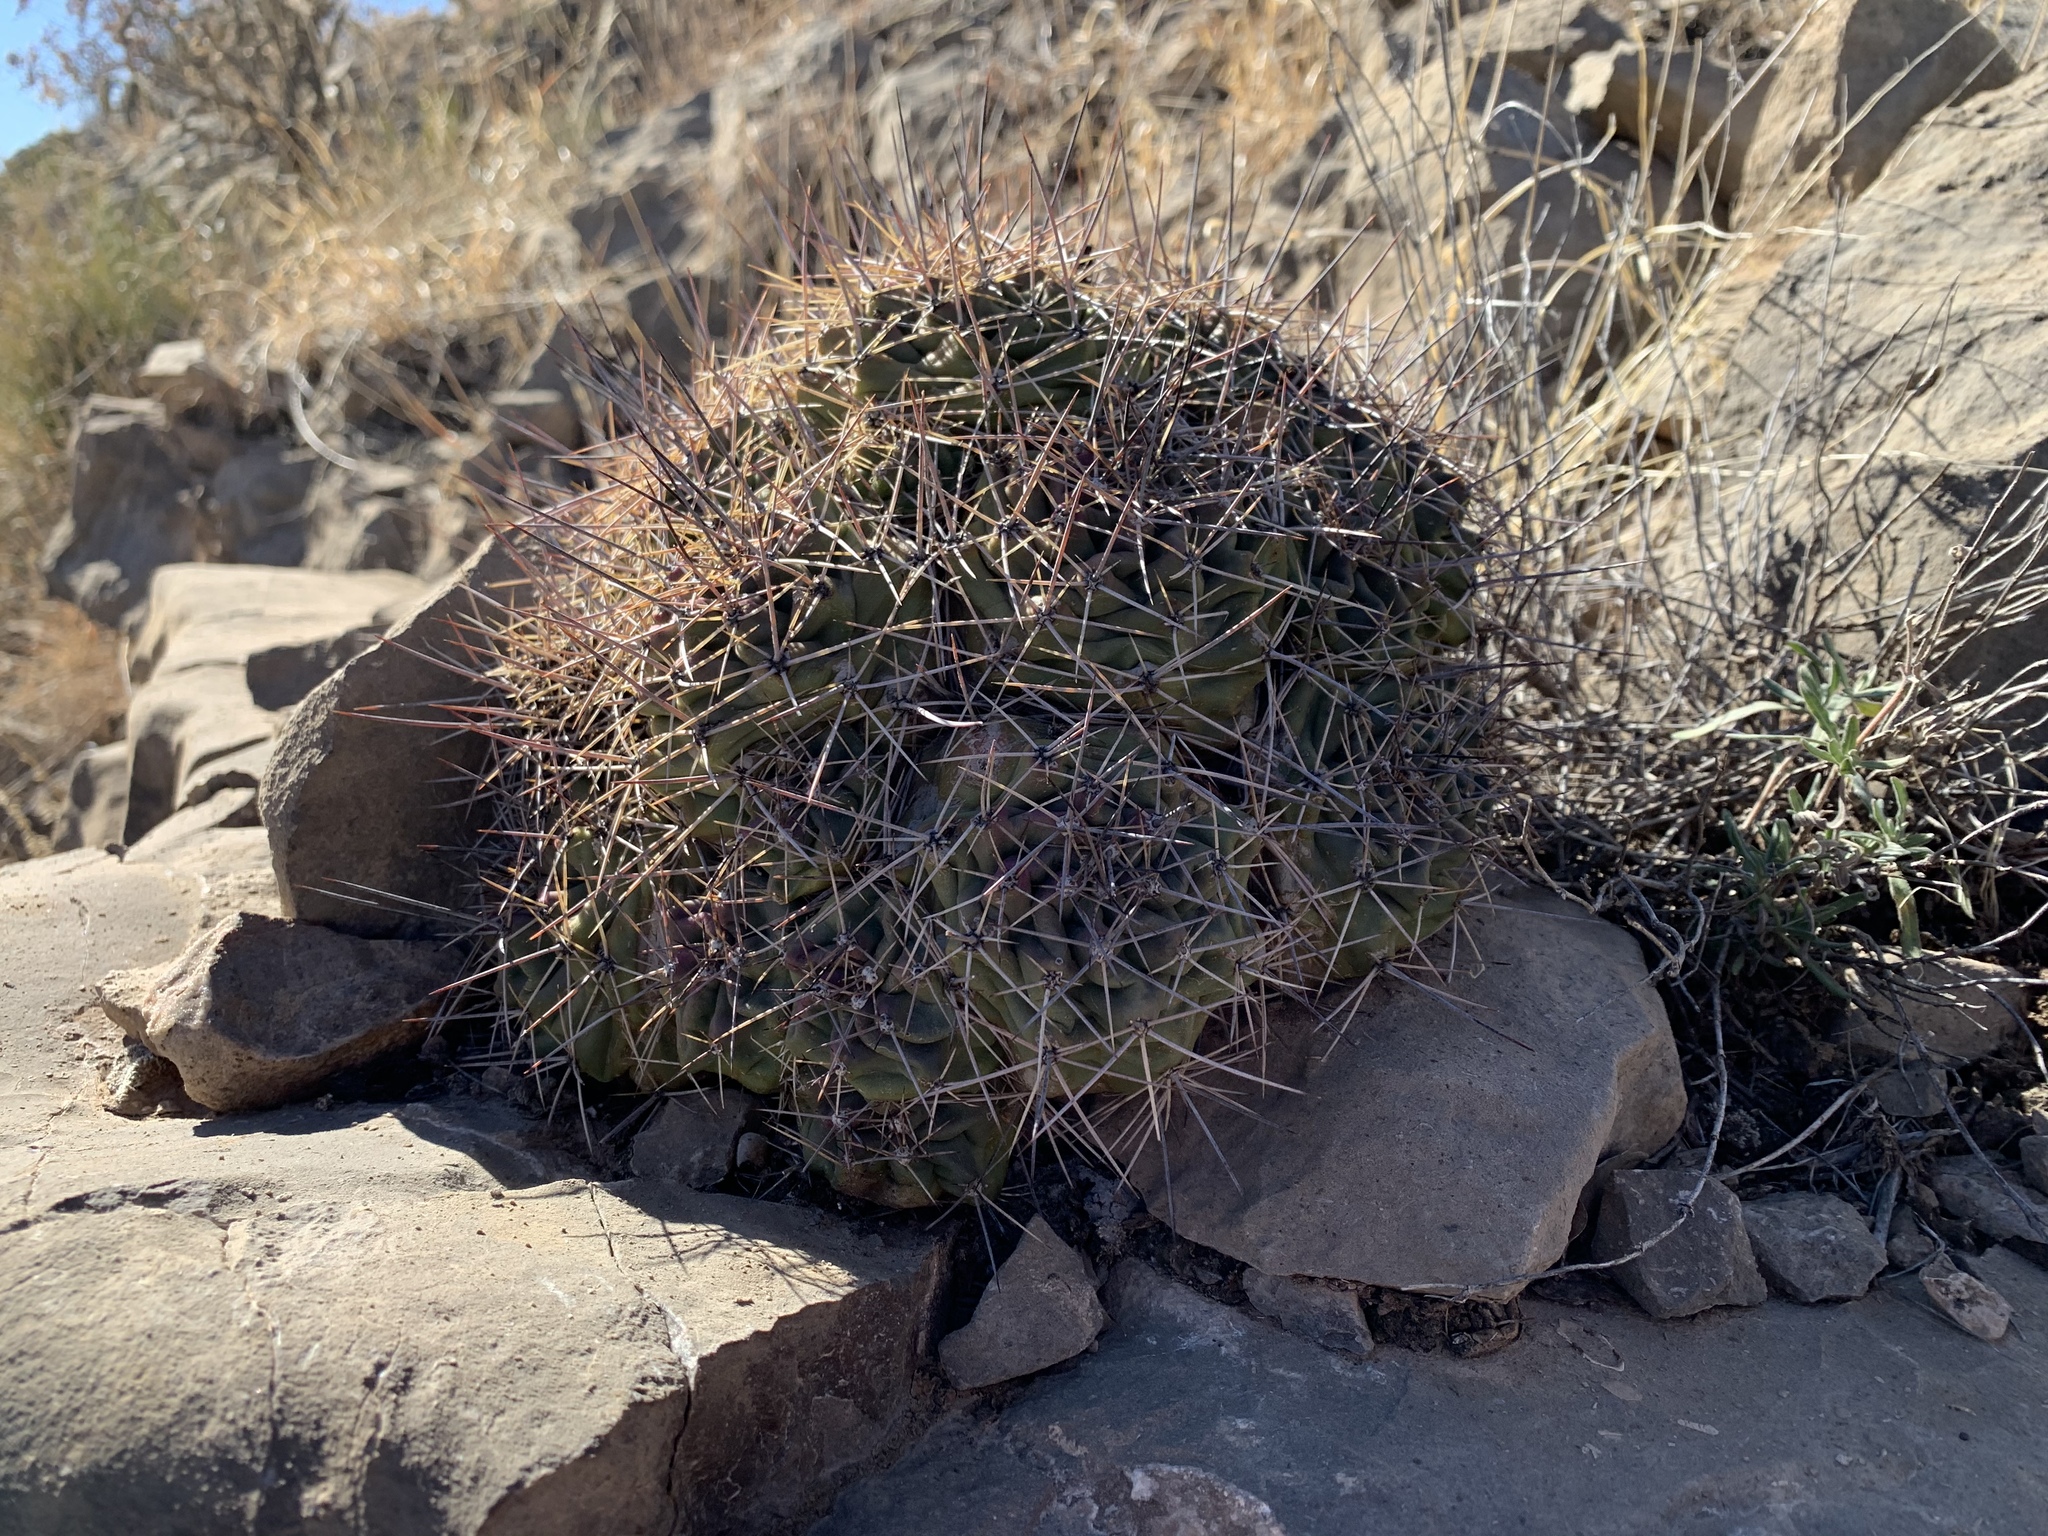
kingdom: Plantae
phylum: Tracheophyta
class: Magnoliopsida
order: Caryophyllales
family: Cactaceae
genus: Echinocereus
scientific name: Echinocereus coccineus
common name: Scarlet hedgehog cactus
